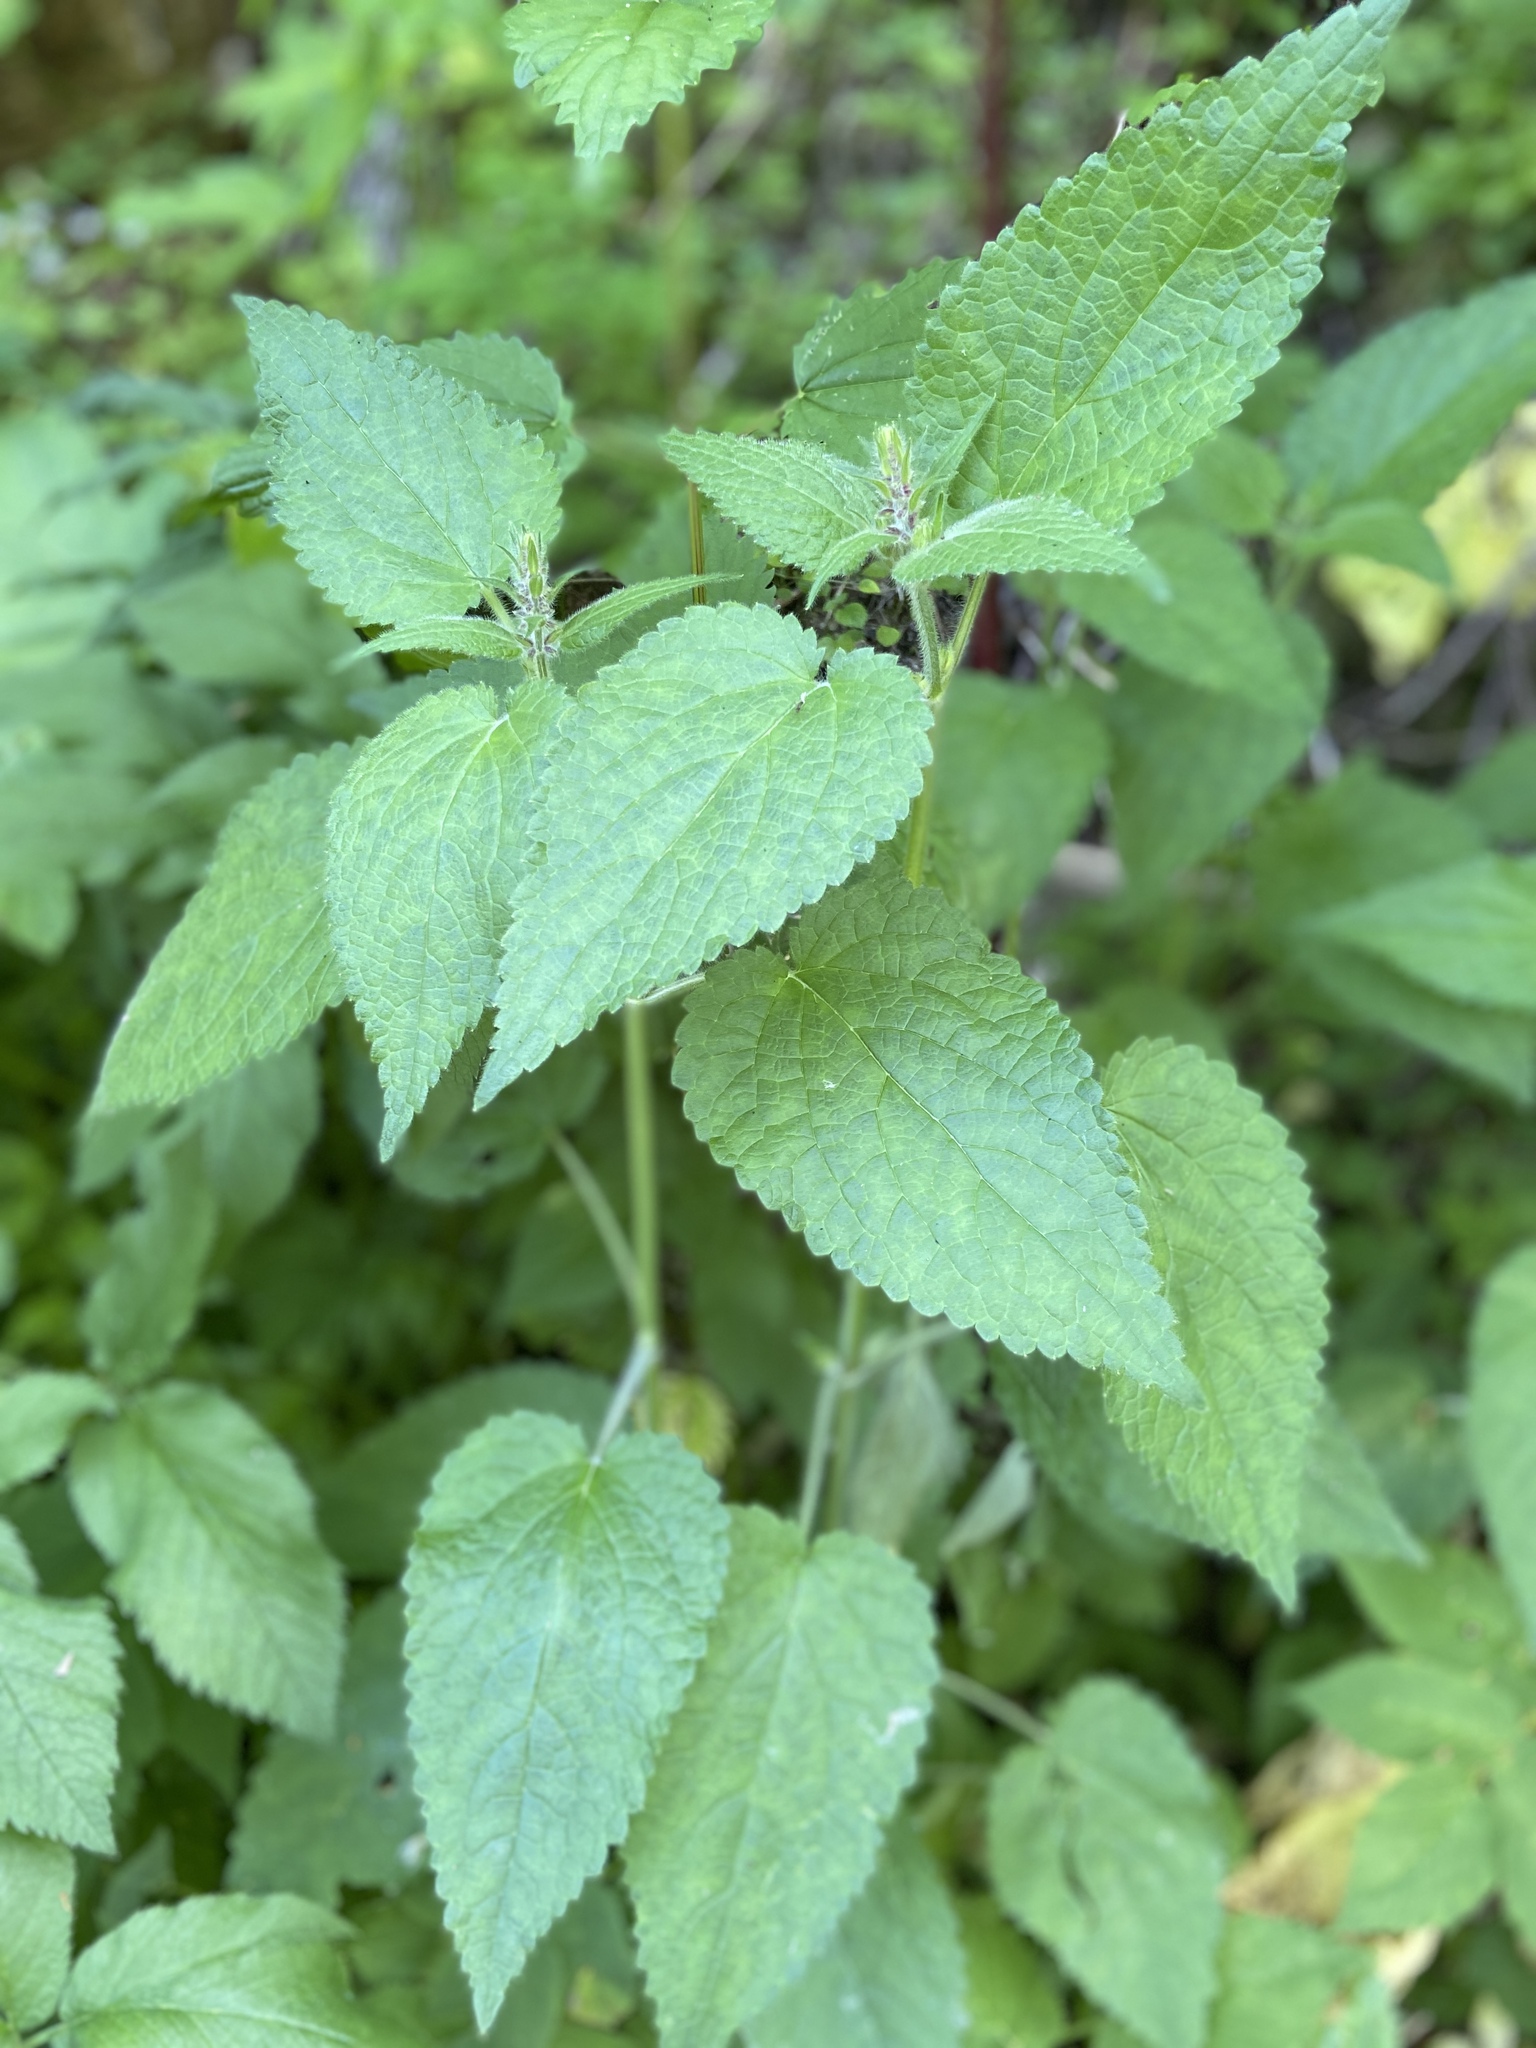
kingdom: Plantae
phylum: Tracheophyta
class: Magnoliopsida
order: Lamiales
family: Lamiaceae
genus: Stachys
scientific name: Stachys sylvatica
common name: Hedge woundwort
